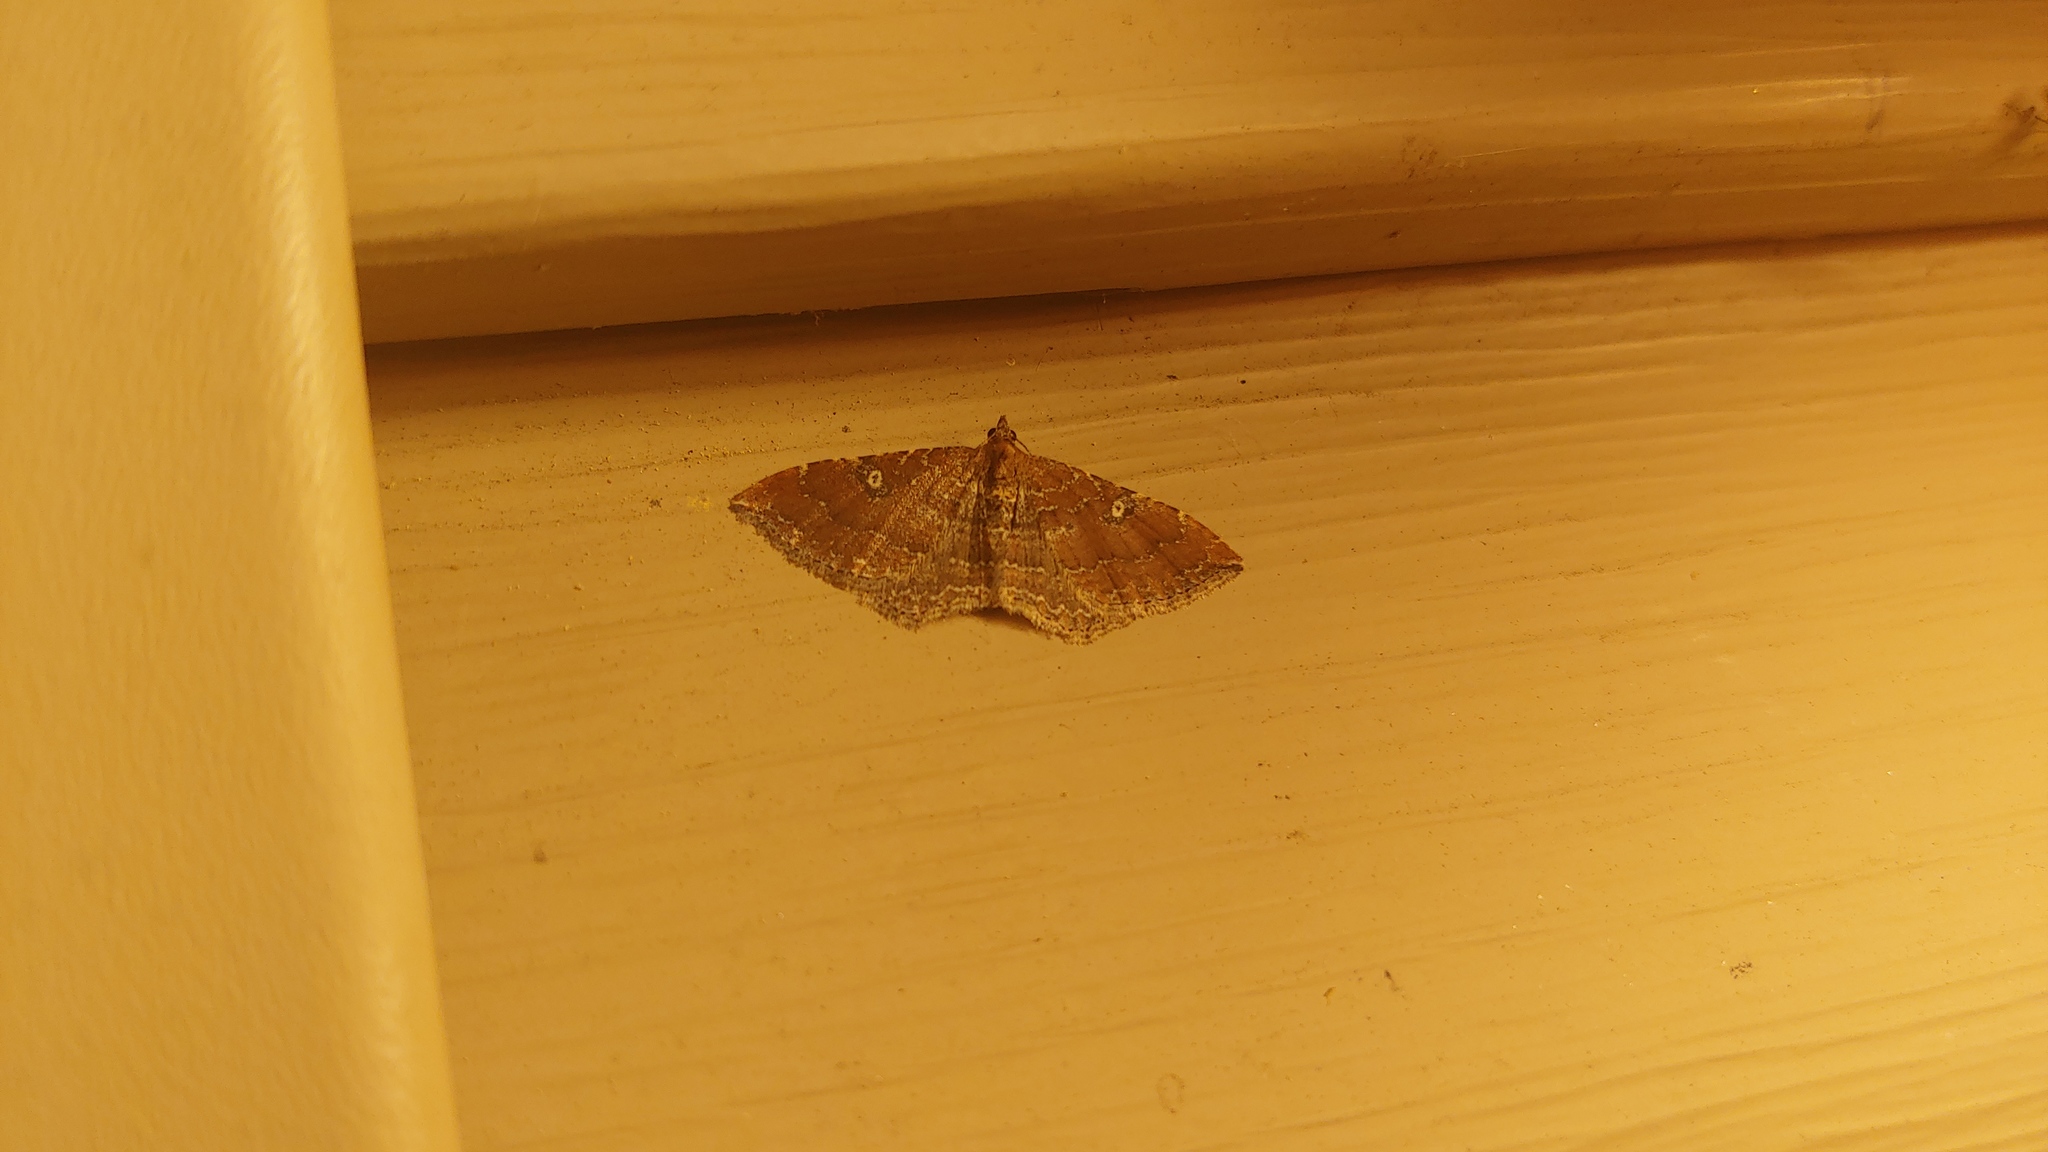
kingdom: Animalia
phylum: Arthropoda
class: Insecta
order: Lepidoptera
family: Geometridae
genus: Orthonama
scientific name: Orthonama obstipata
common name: The gem
